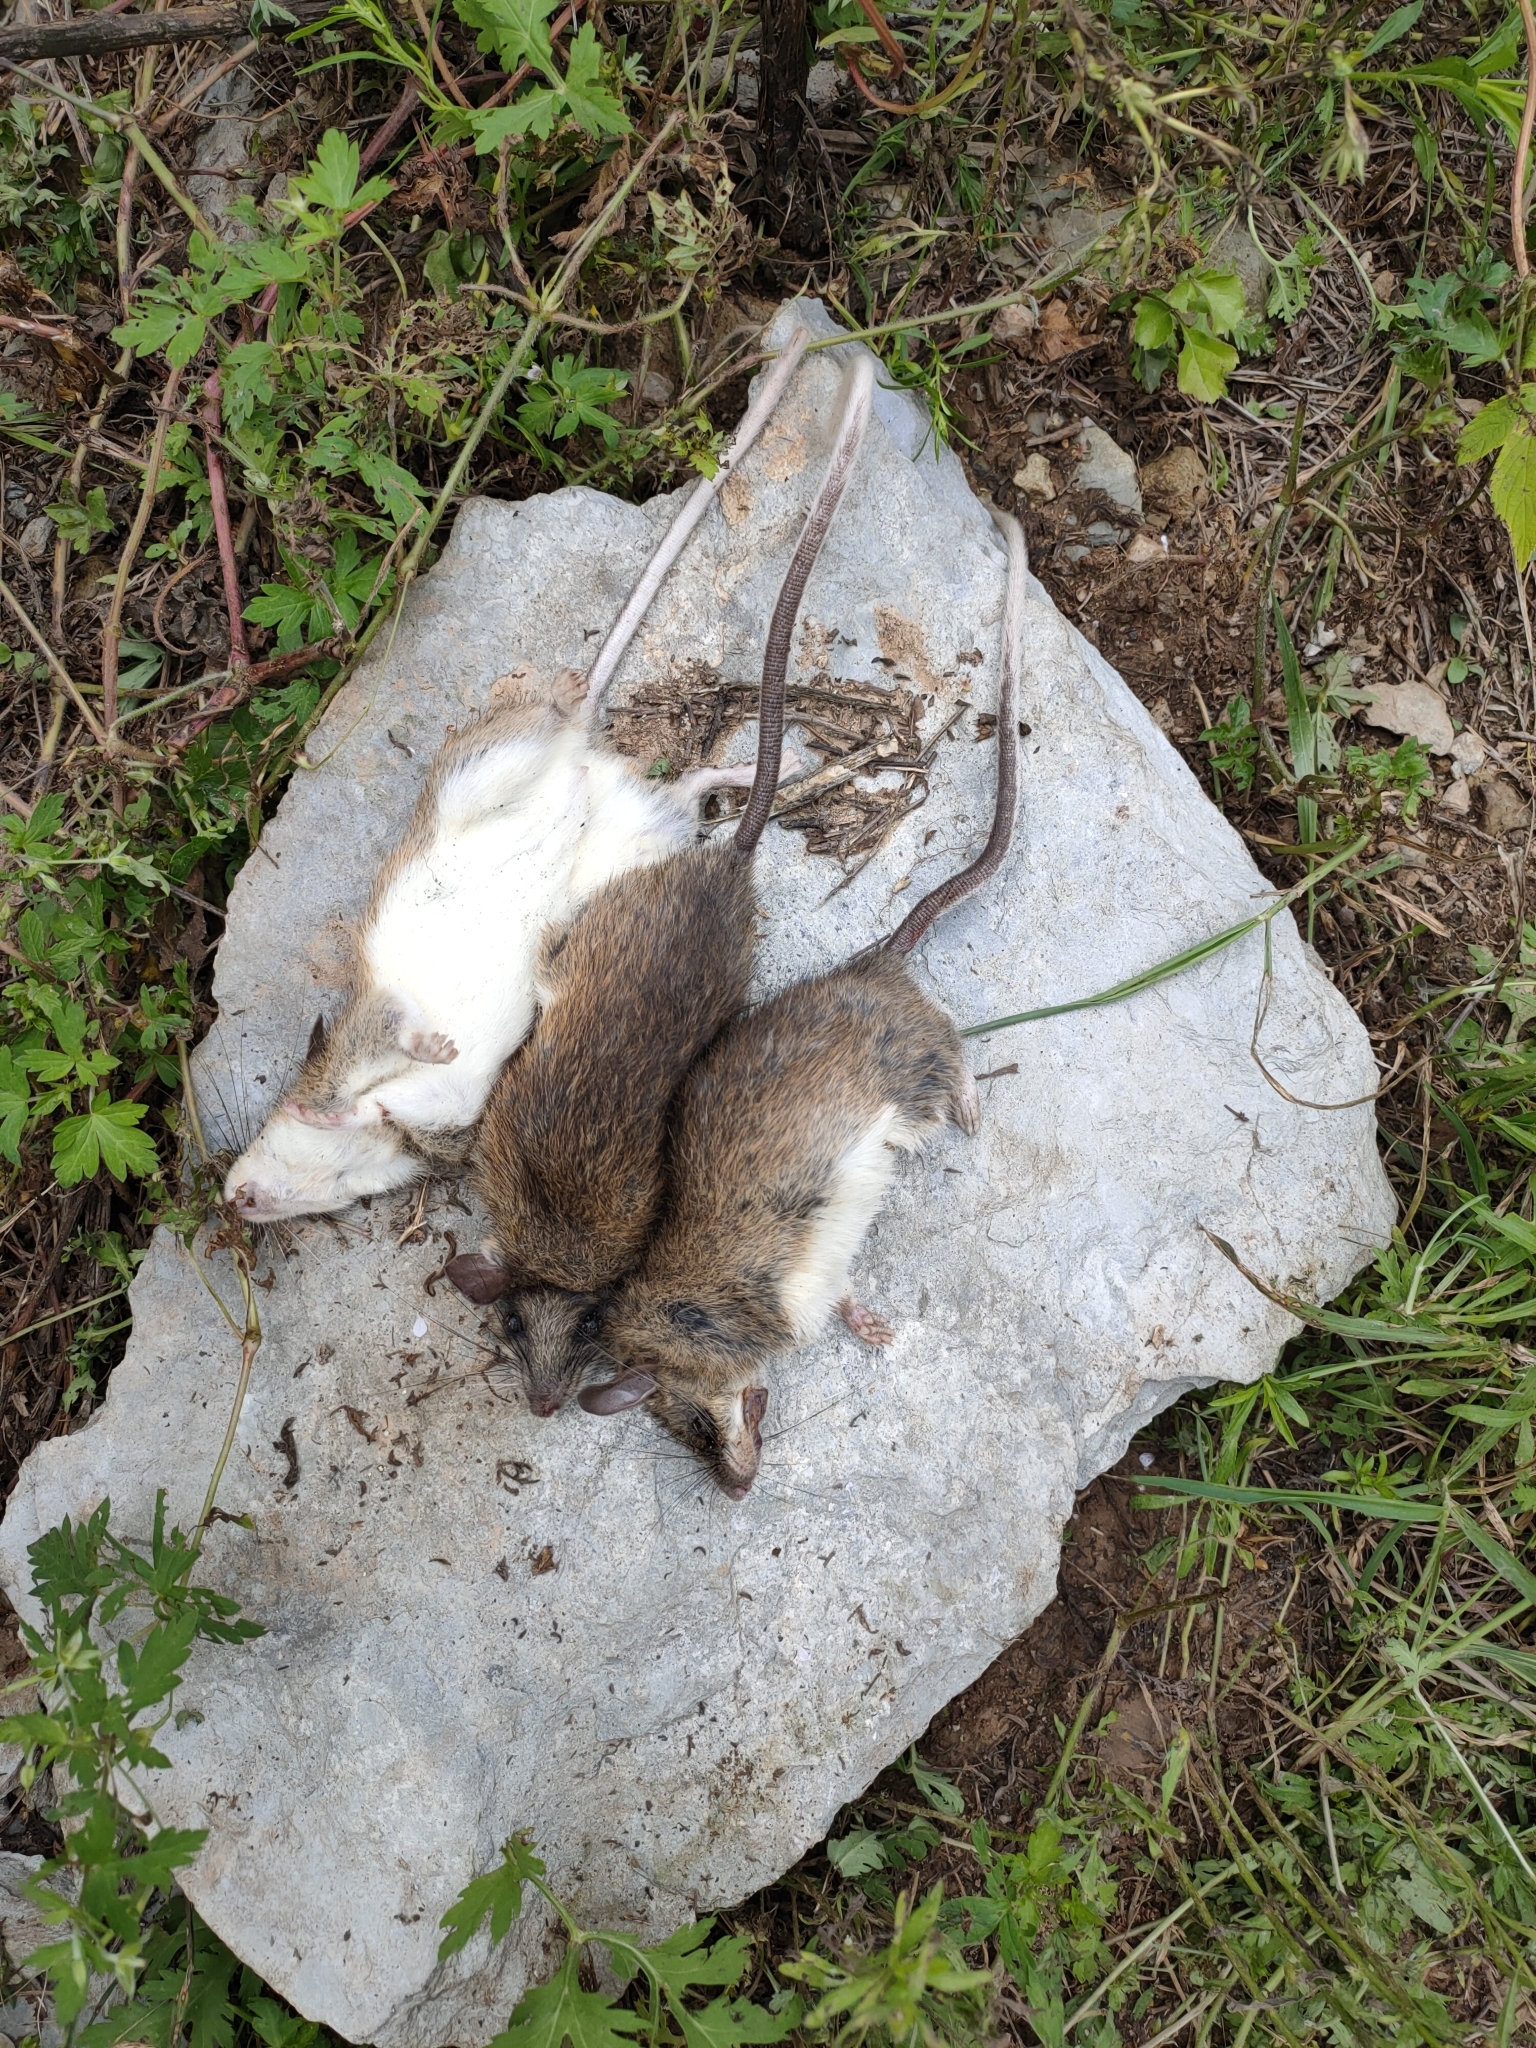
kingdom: Animalia
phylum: Chordata
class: Mammalia
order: Rodentia
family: Muridae
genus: Niviventer
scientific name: Niviventer confucianus
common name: Confucian niviventer
